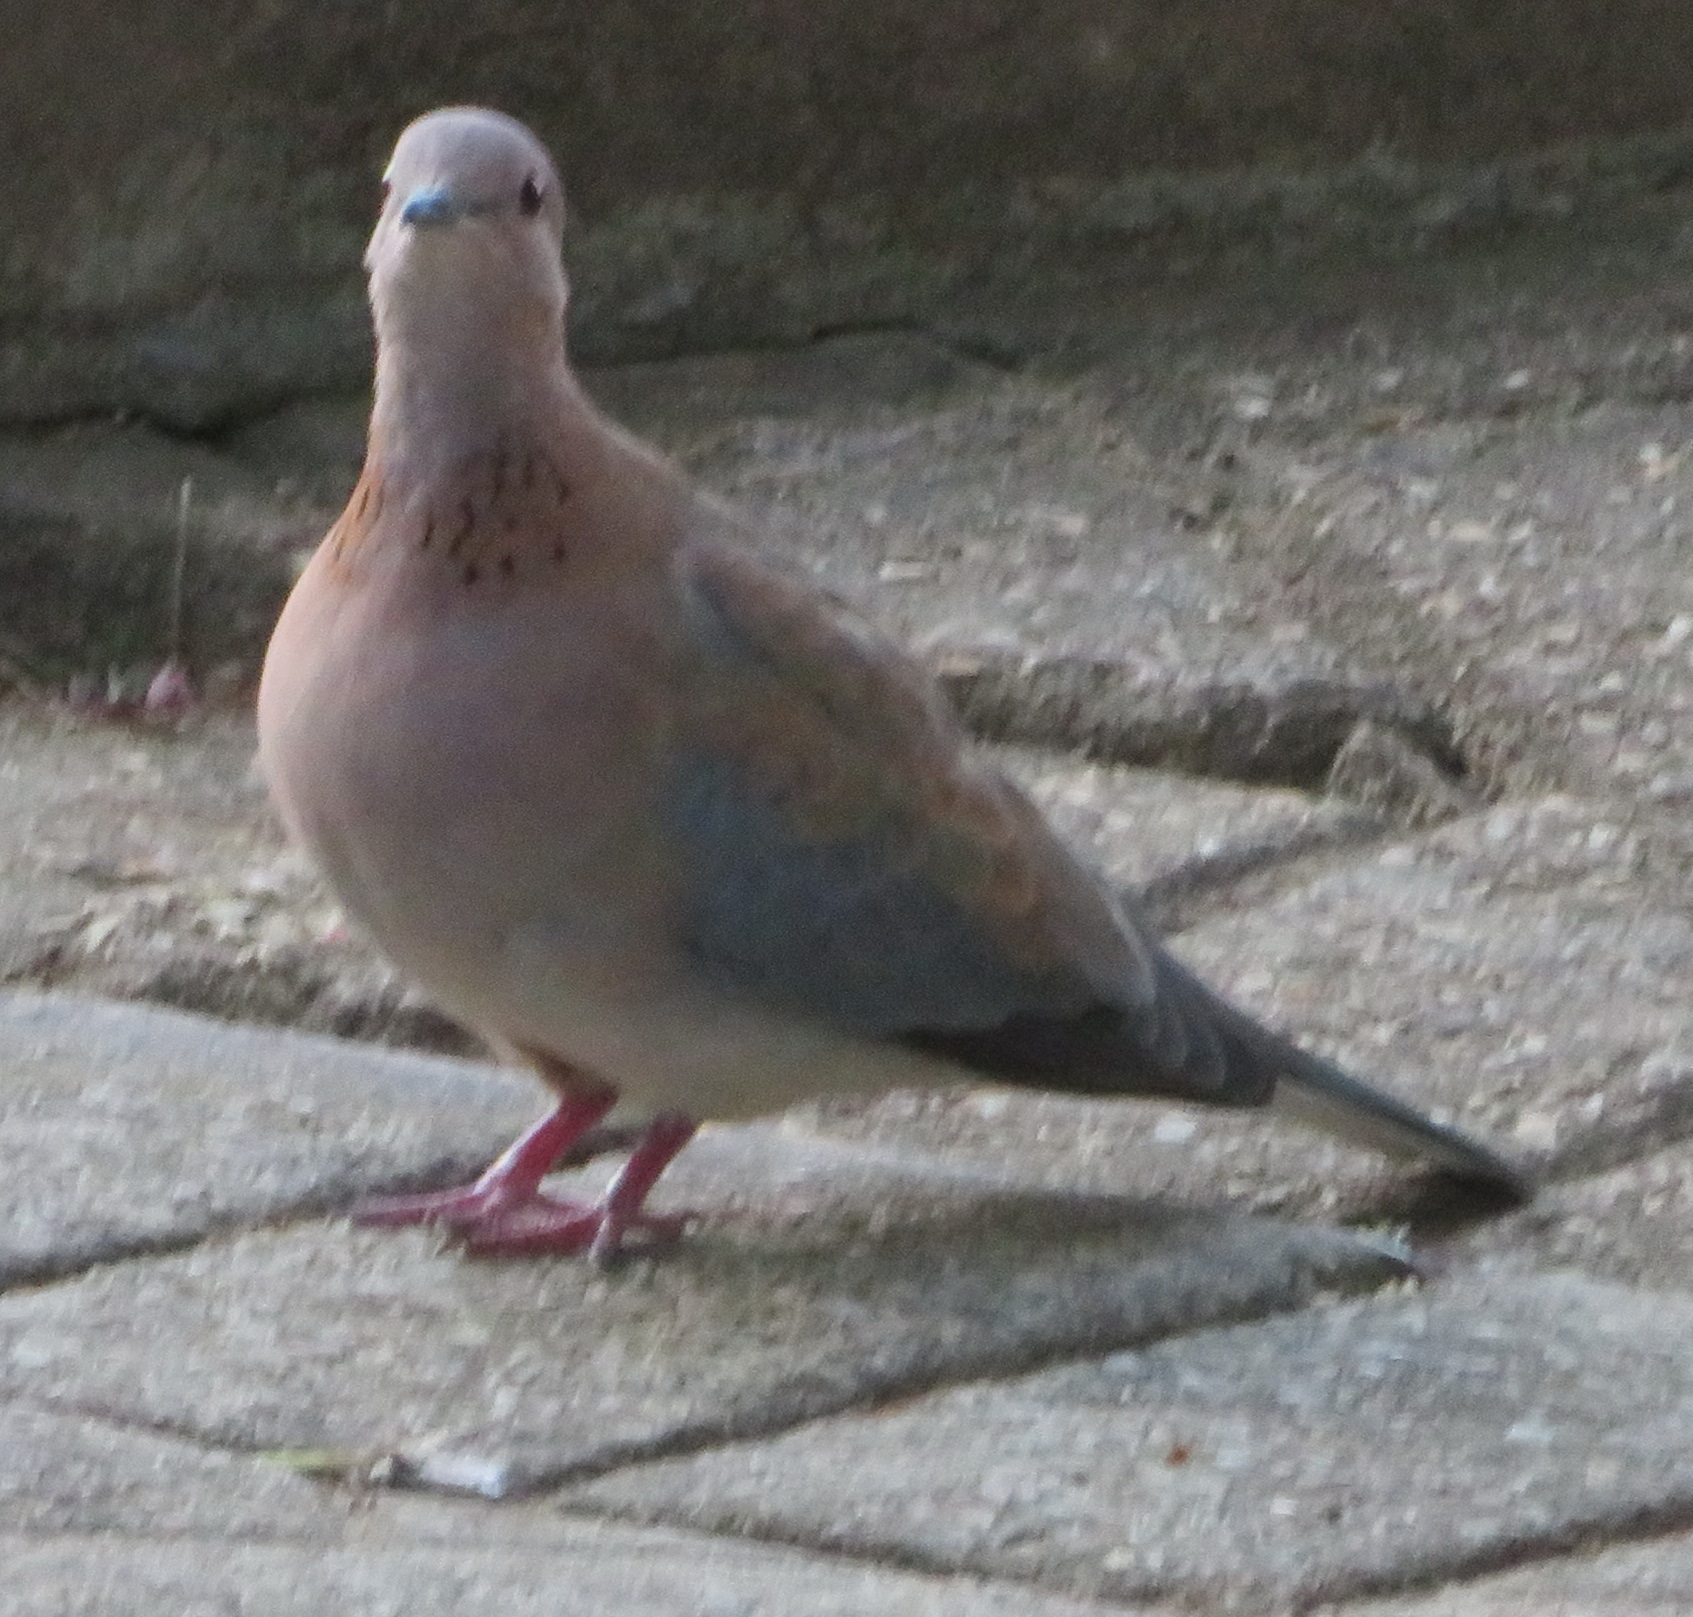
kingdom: Animalia
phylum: Chordata
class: Aves
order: Columbiformes
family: Columbidae
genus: Spilopelia
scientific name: Spilopelia senegalensis
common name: Laughing dove
